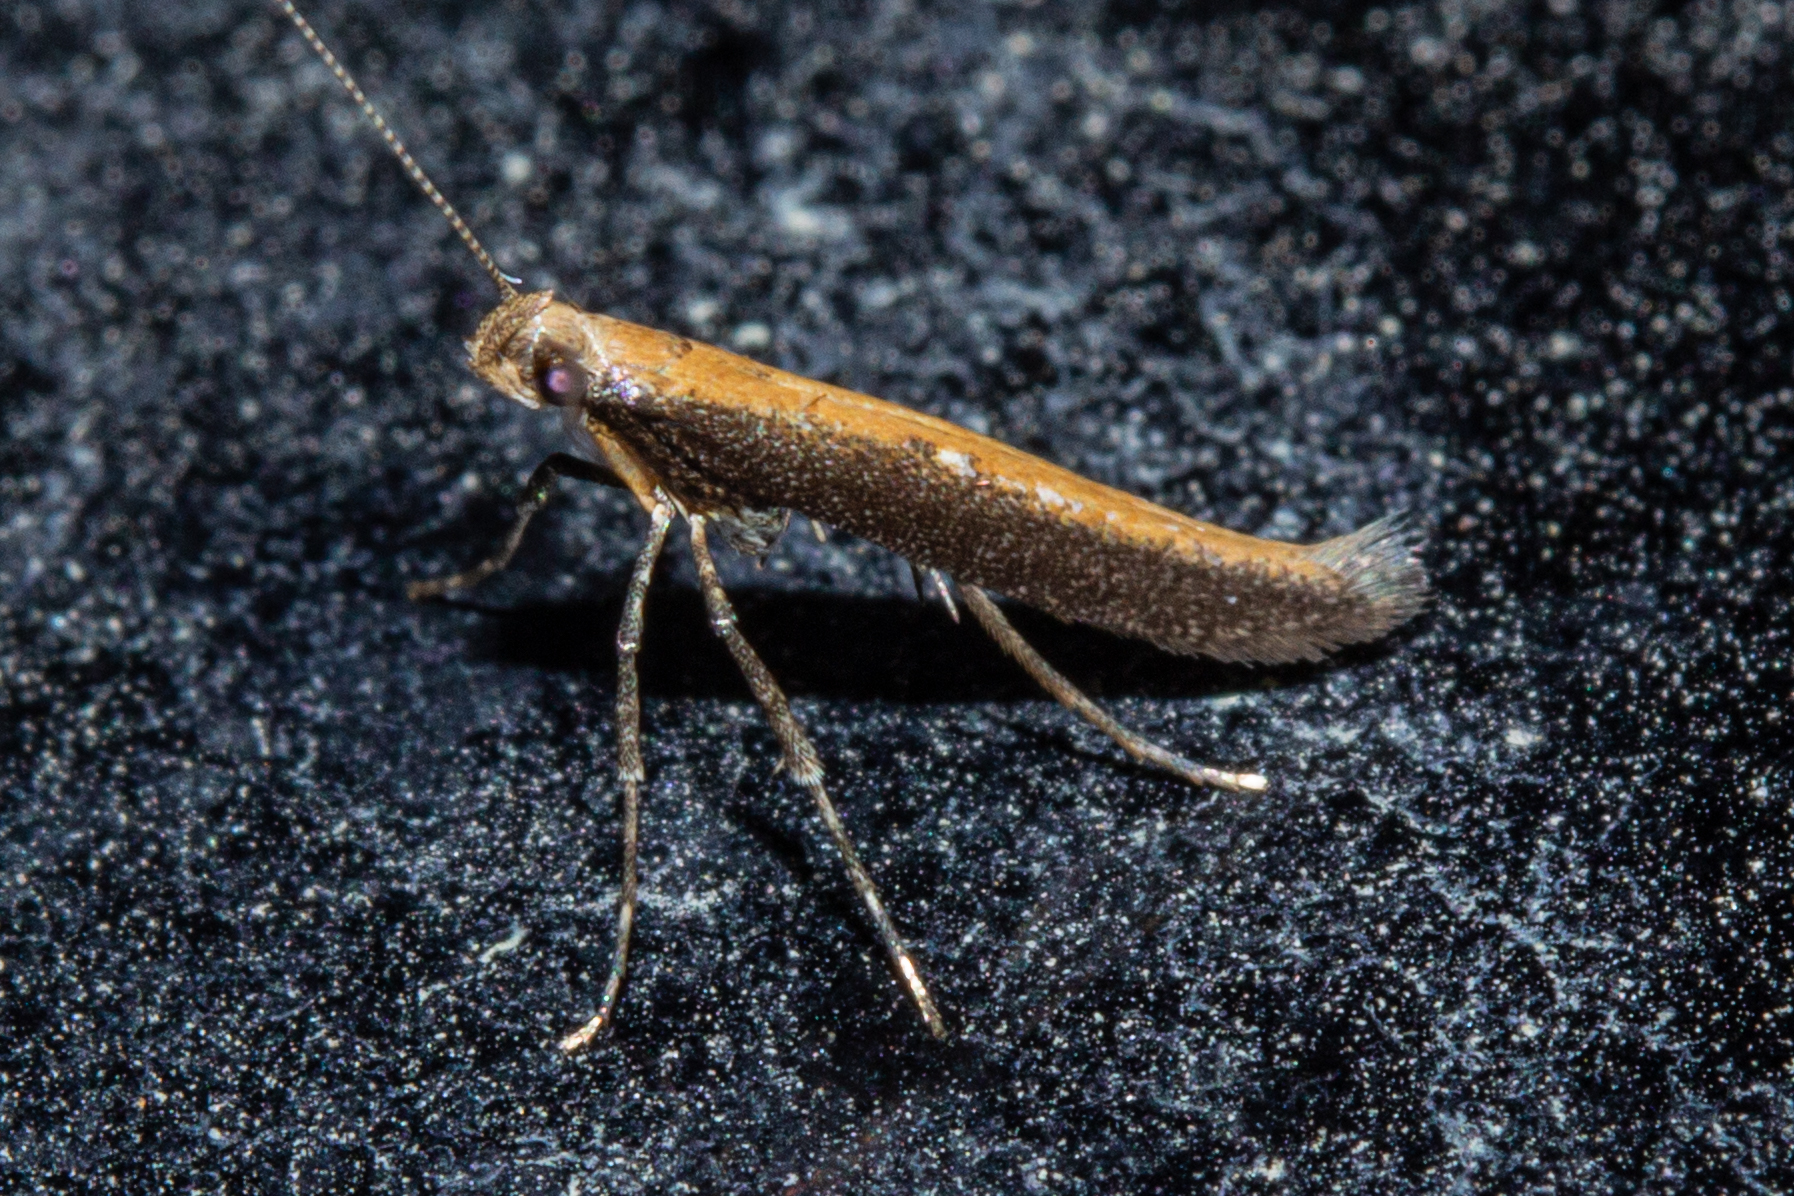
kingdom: Animalia
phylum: Arthropoda
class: Insecta
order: Lepidoptera
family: Gracillariidae
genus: Caloptilia
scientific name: Caloptilia linearis
